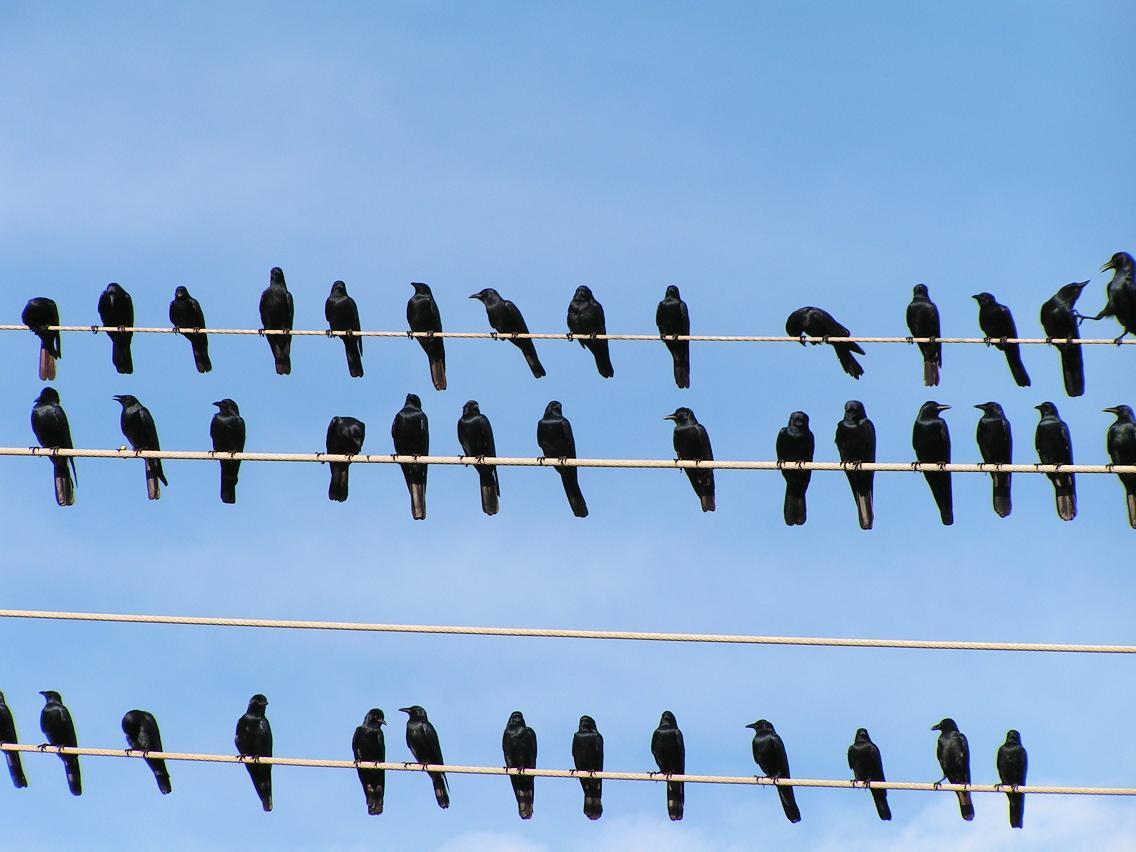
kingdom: Animalia
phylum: Chordata
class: Aves
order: Passeriformes
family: Corvidae
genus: Corvus
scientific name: Corvus sinaloae
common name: Sinaloa crow
